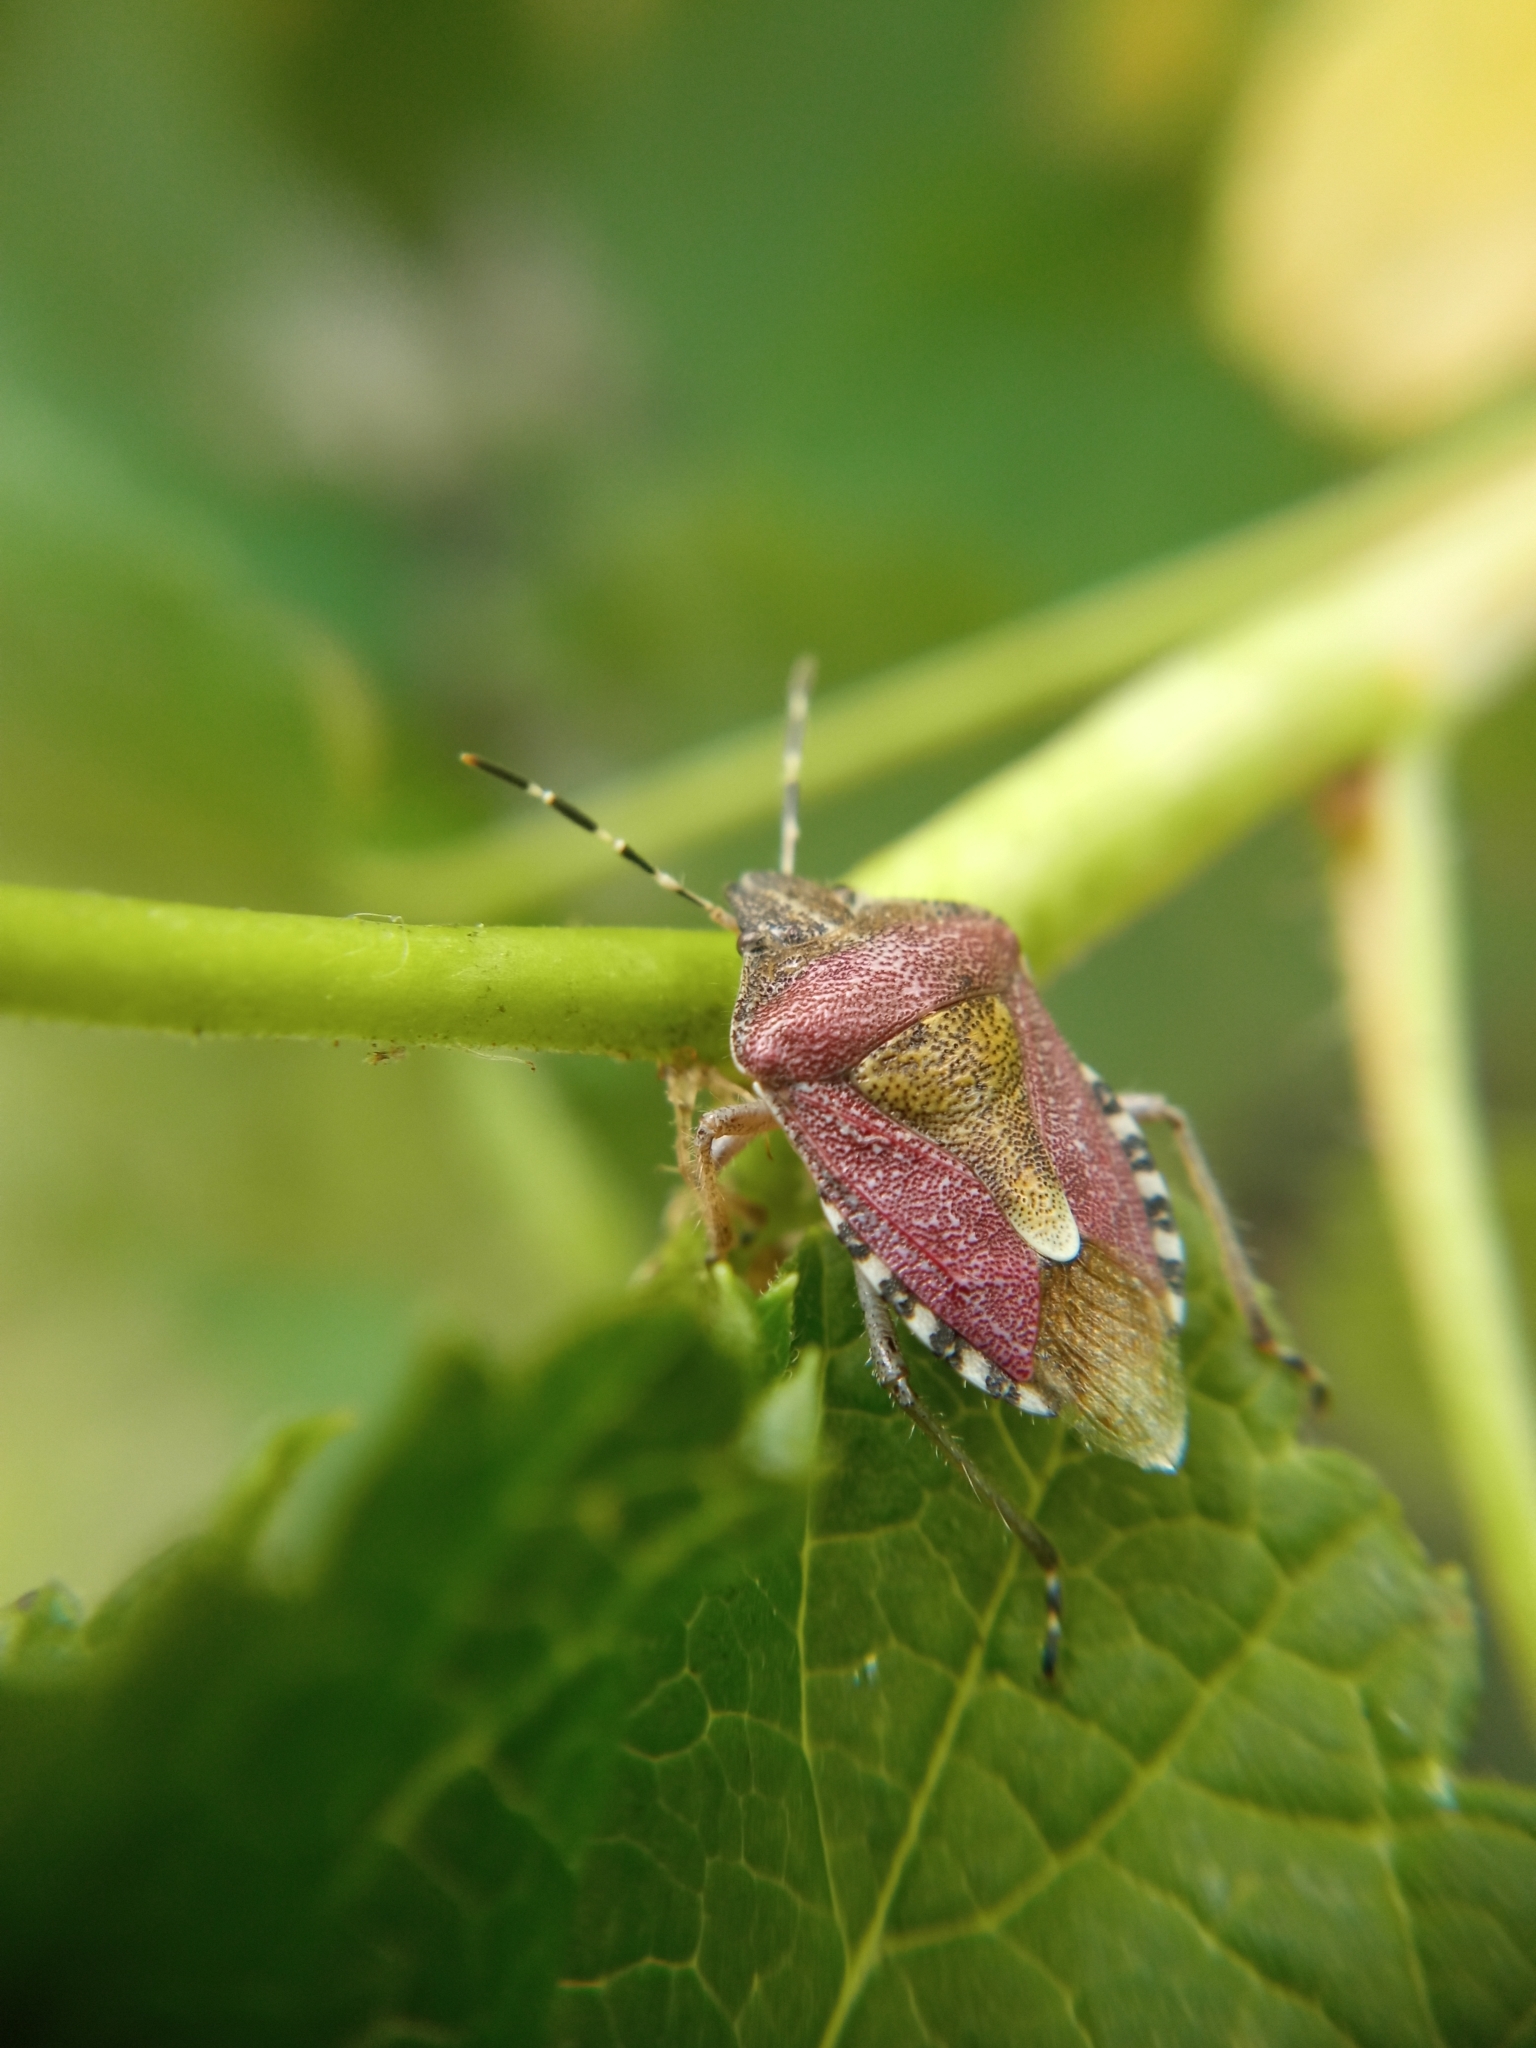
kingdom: Animalia
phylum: Arthropoda
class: Insecta
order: Hemiptera
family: Pentatomidae
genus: Dolycoris
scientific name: Dolycoris baccarum
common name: Sloe bug
